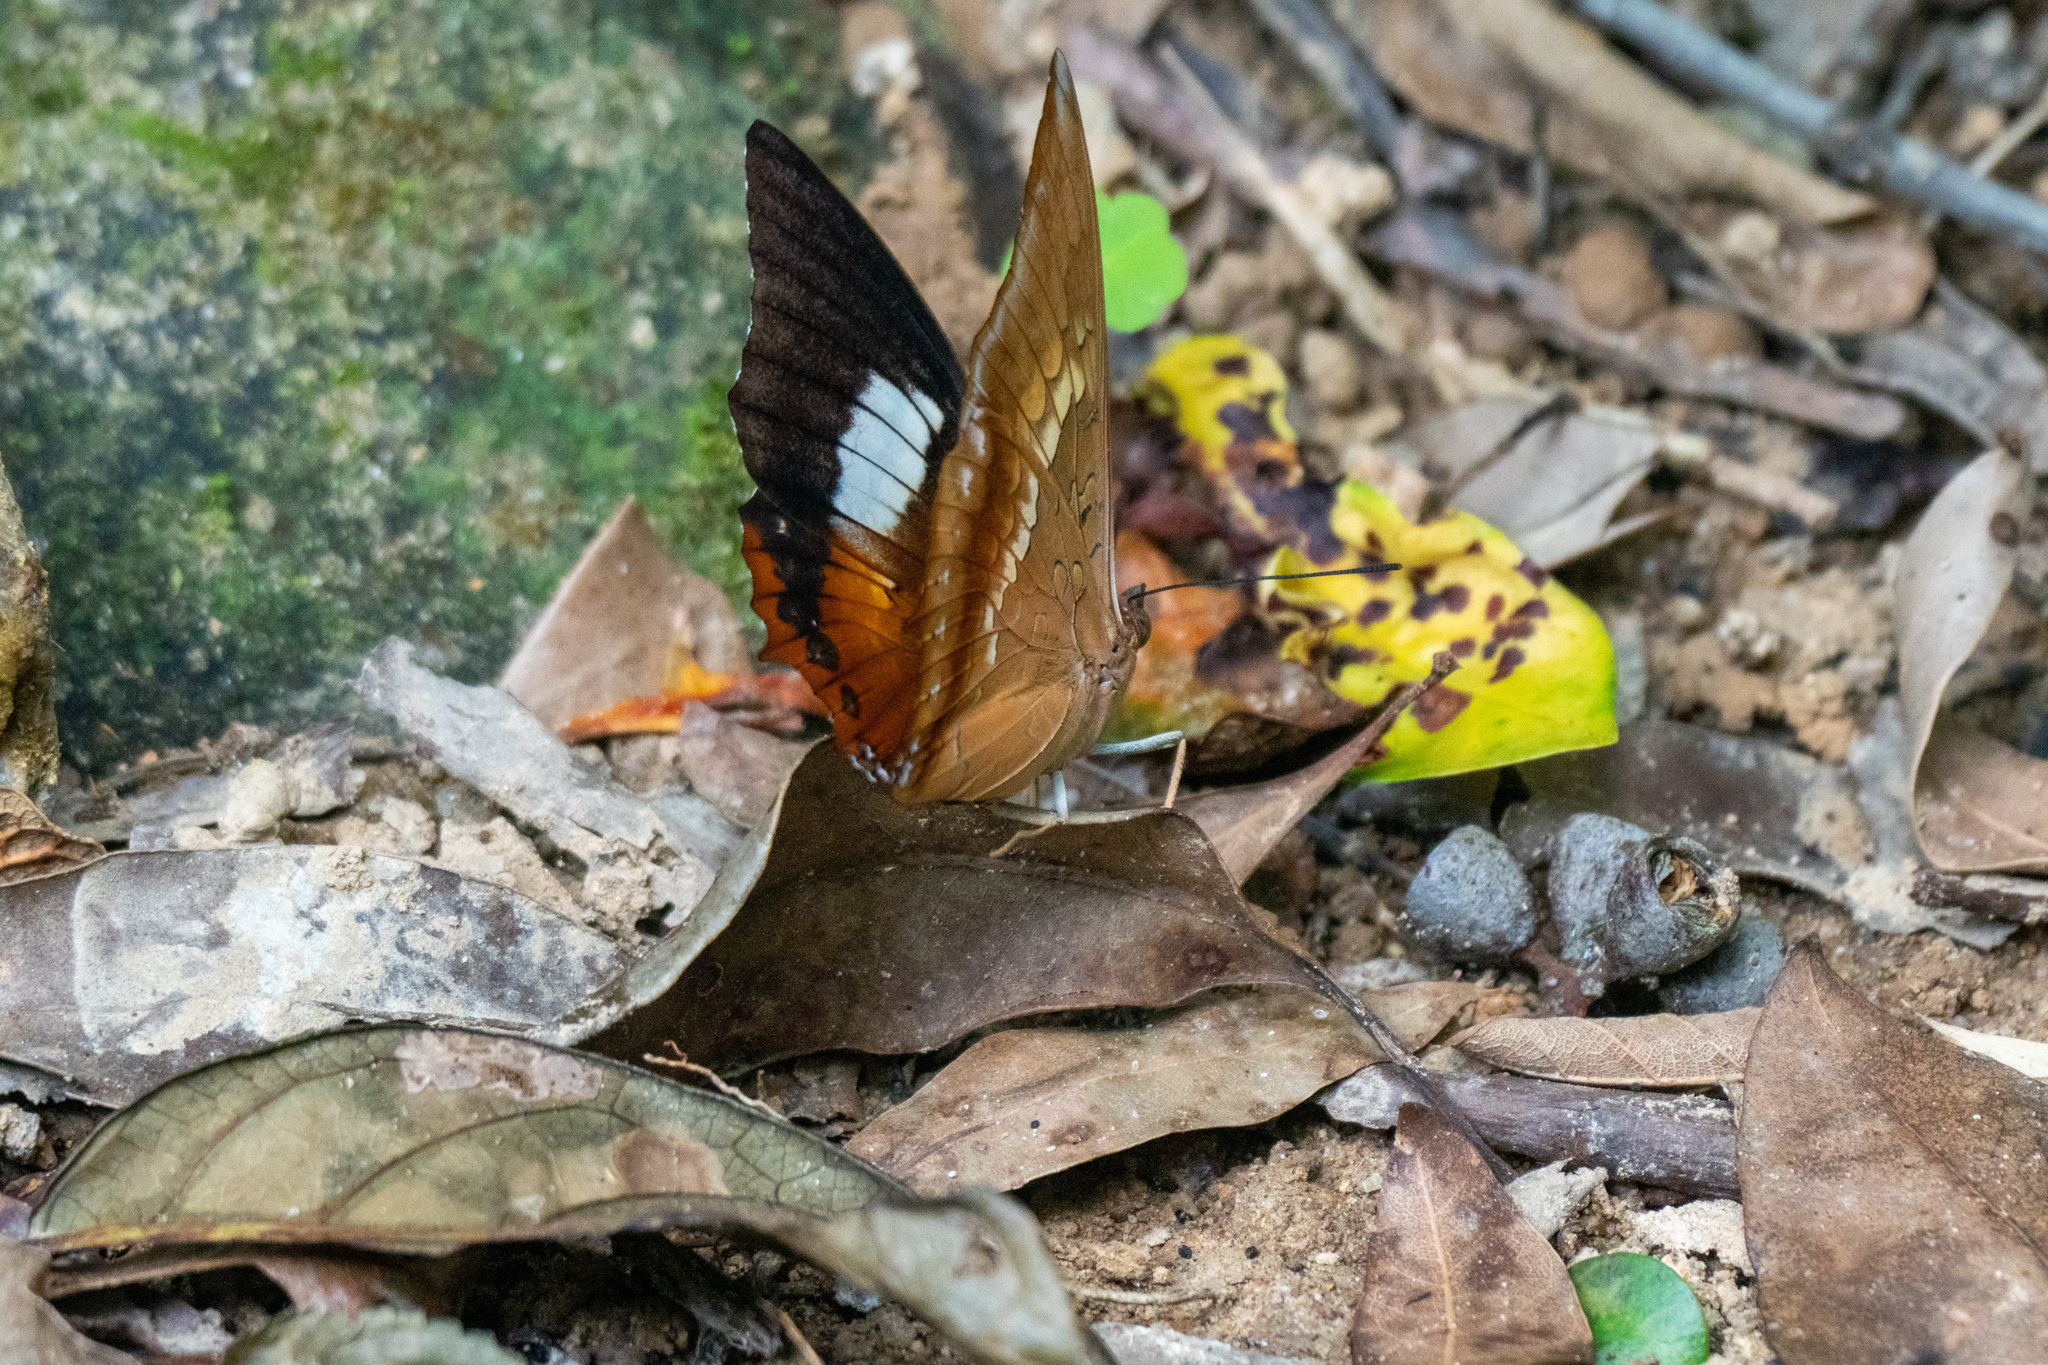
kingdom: Animalia
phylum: Arthropoda
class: Insecta
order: Lepidoptera
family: Nymphalidae
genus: Charaxes
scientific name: Charaxes bernardus
